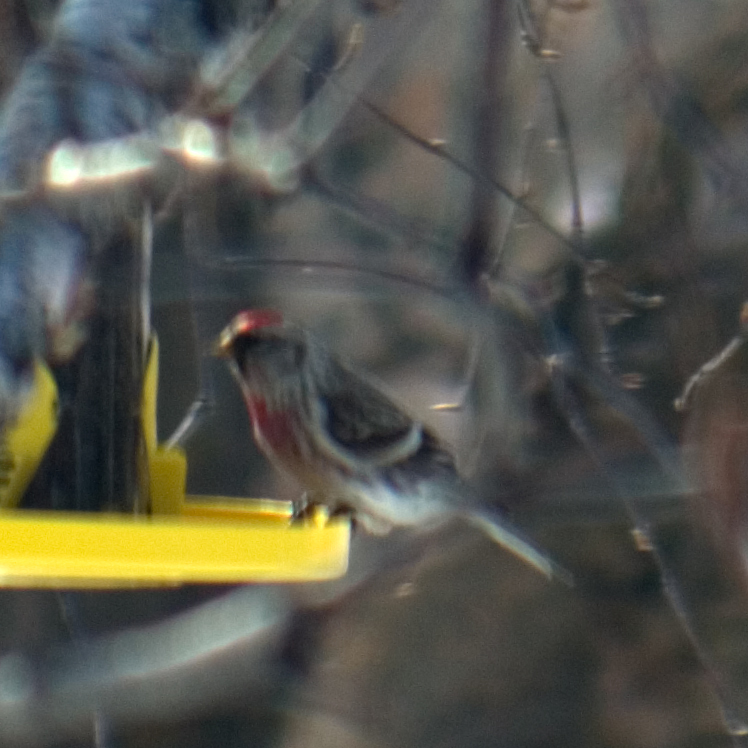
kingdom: Animalia
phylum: Chordata
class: Aves
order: Passeriformes
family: Fringillidae
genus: Acanthis
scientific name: Acanthis flammea
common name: Common redpoll
